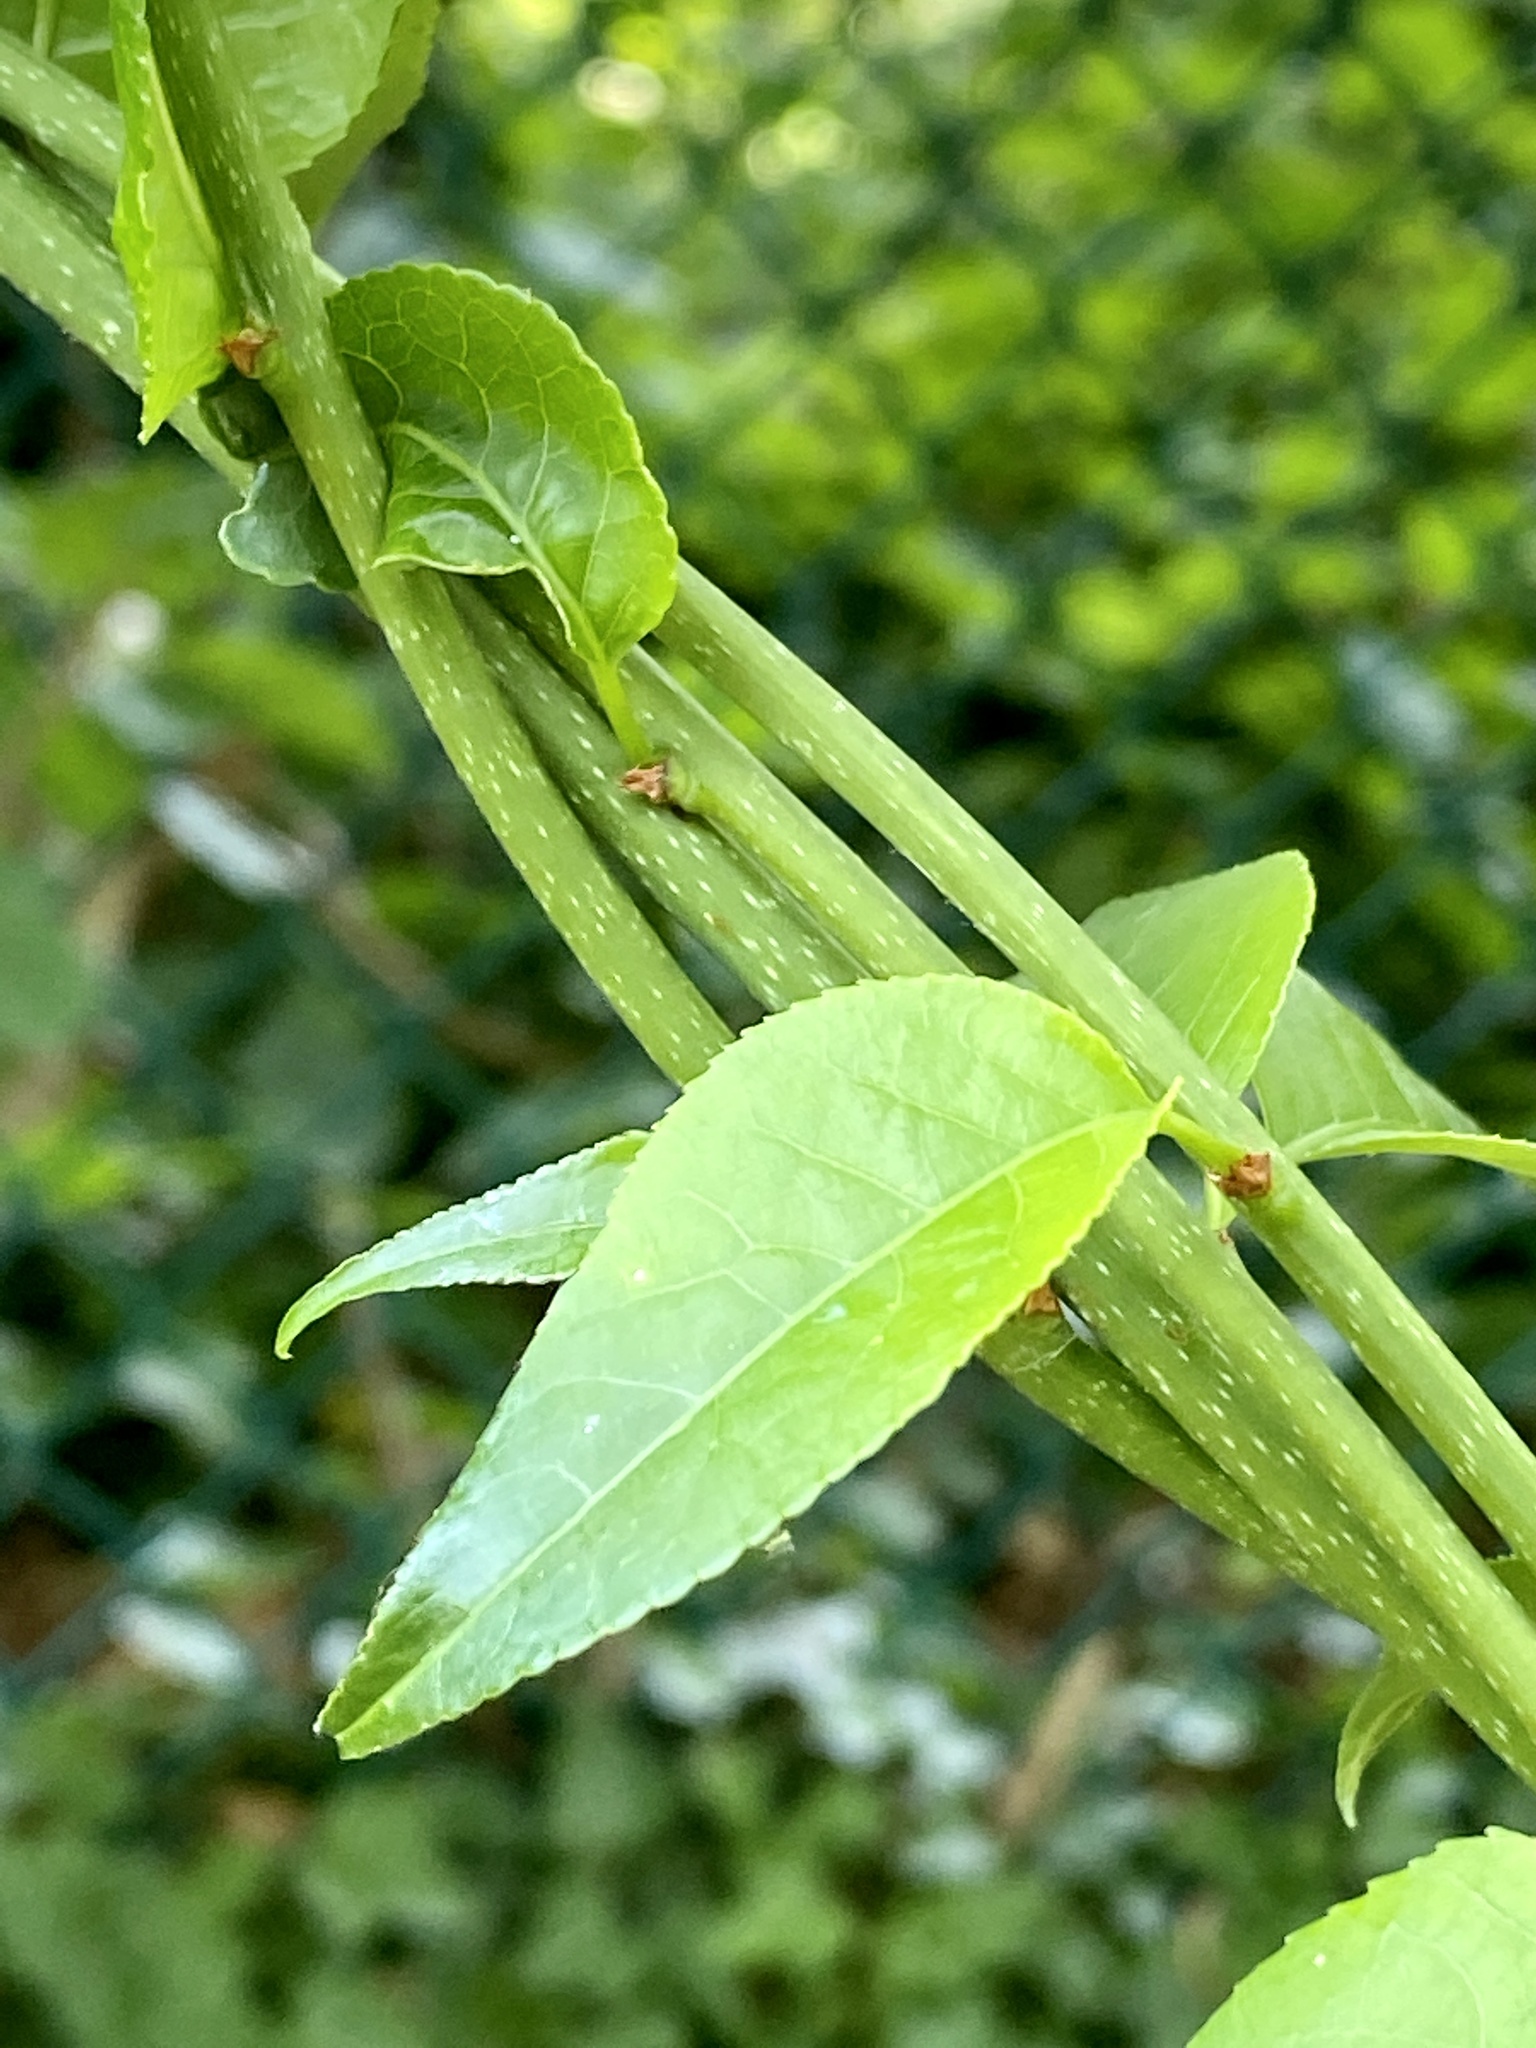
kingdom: Plantae
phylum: Tracheophyta
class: Magnoliopsida
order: Celastrales
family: Celastraceae
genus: Celastrus
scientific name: Celastrus orbiculatus
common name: Oriental bittersweet
